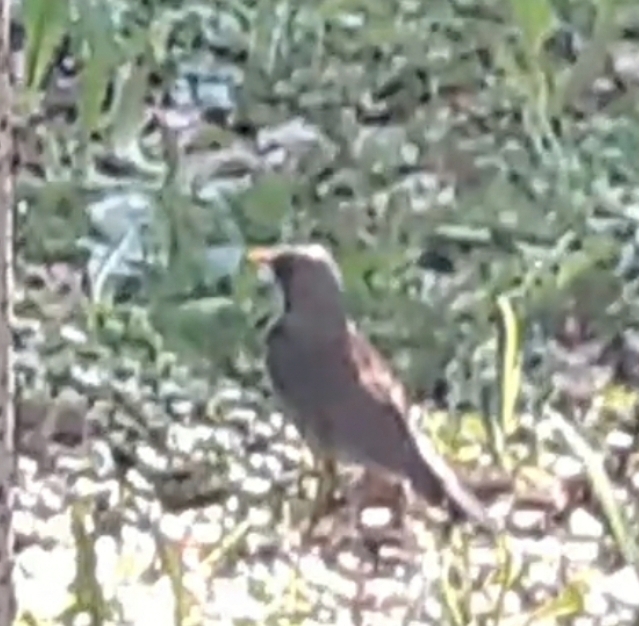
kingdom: Animalia
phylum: Chordata
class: Aves
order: Passeriformes
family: Turdidae
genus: Turdus
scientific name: Turdus pilaris
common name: Fieldfare
